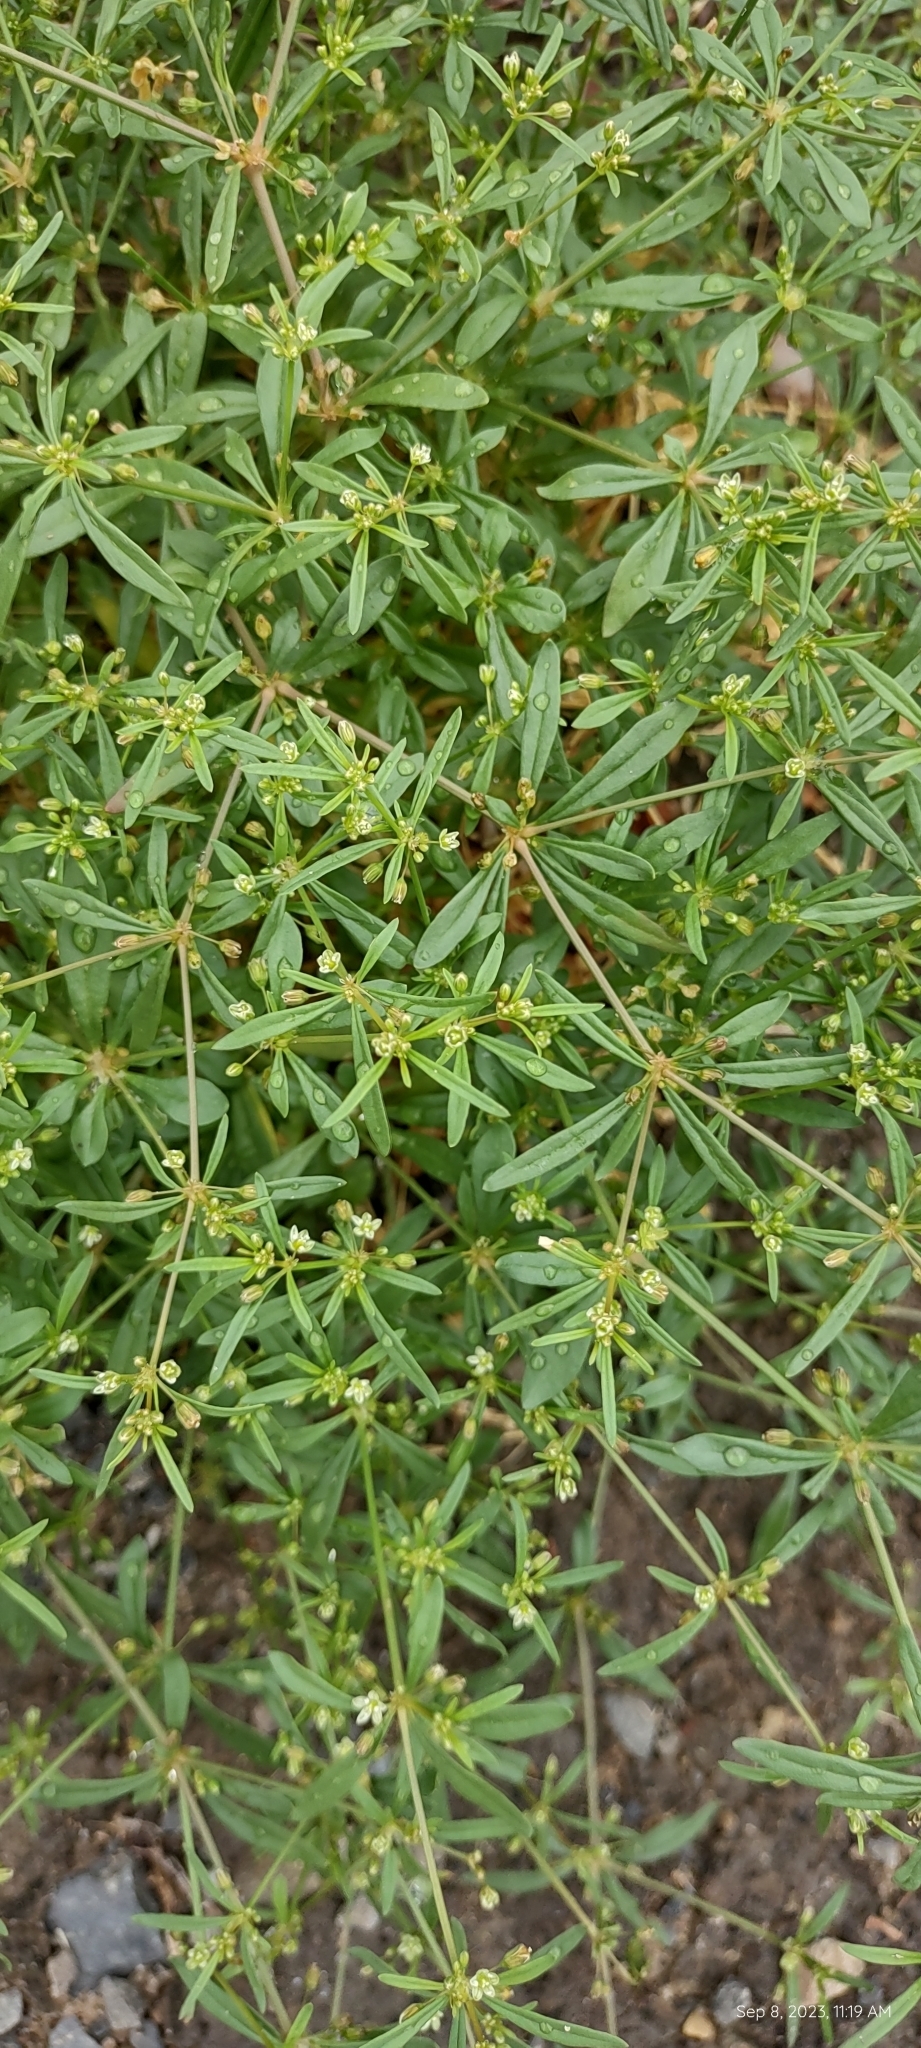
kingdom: Plantae
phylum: Tracheophyta
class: Magnoliopsida
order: Caryophyllales
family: Molluginaceae
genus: Mollugo
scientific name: Mollugo verticillata
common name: Green carpetweed
